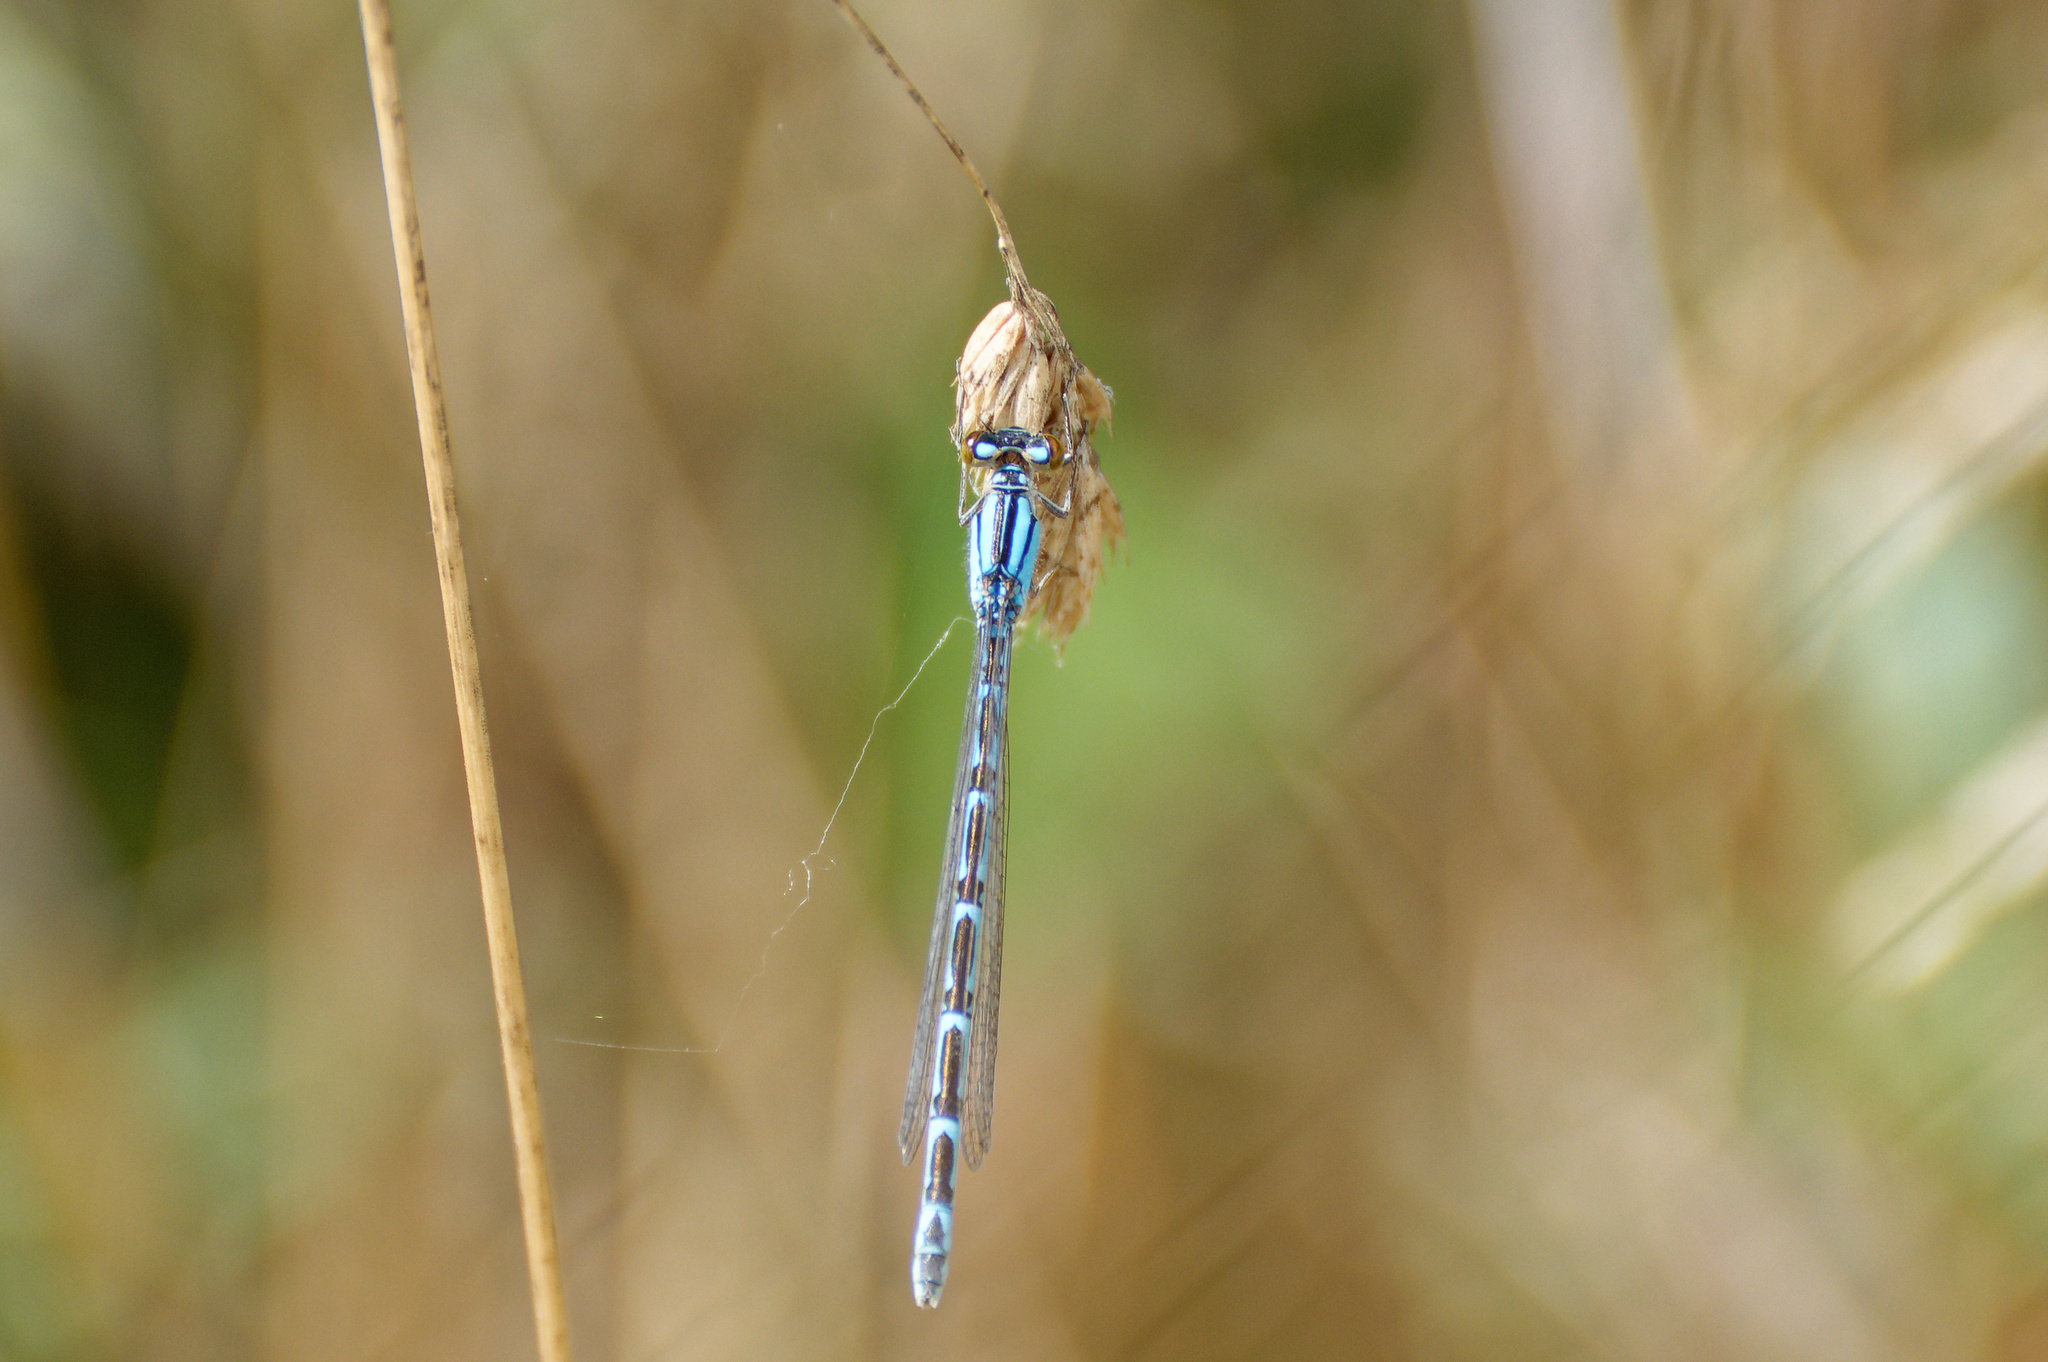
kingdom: Animalia
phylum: Arthropoda
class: Insecta
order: Odonata
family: Coenagrionidae
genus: Enallagma
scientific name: Enallagma cyathigerum
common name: Common blue damselfly
